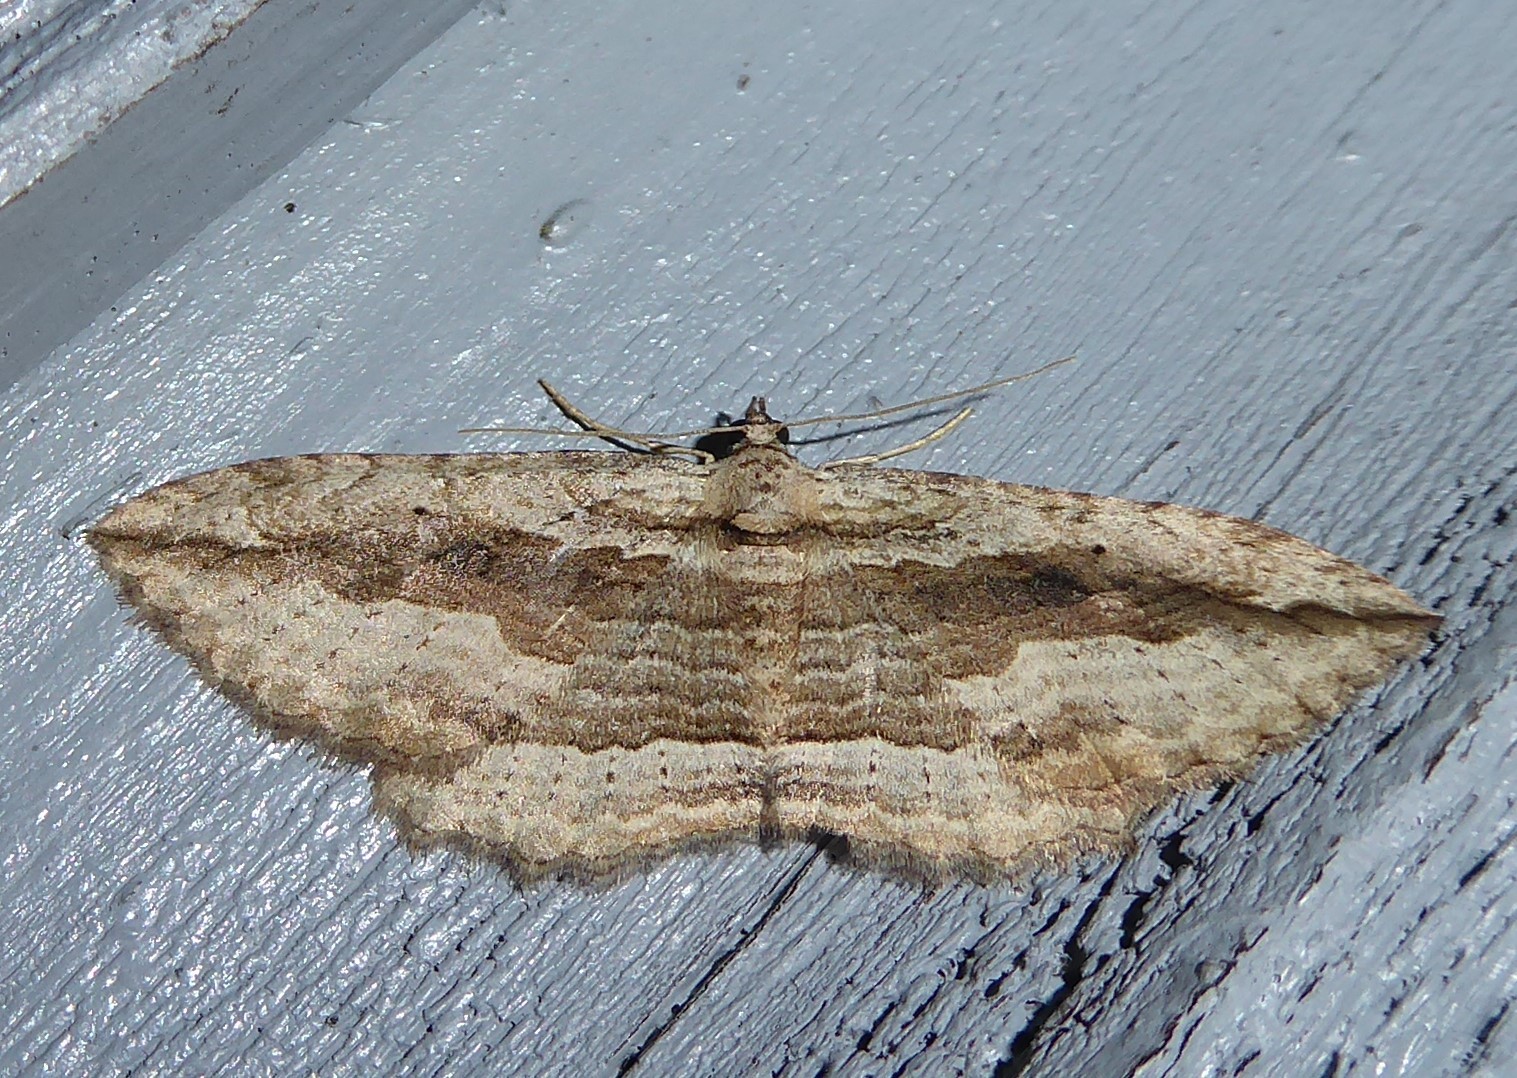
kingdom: Animalia
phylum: Arthropoda
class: Insecta
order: Lepidoptera
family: Geometridae
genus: Austrocidaria
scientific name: Austrocidaria gobiata
